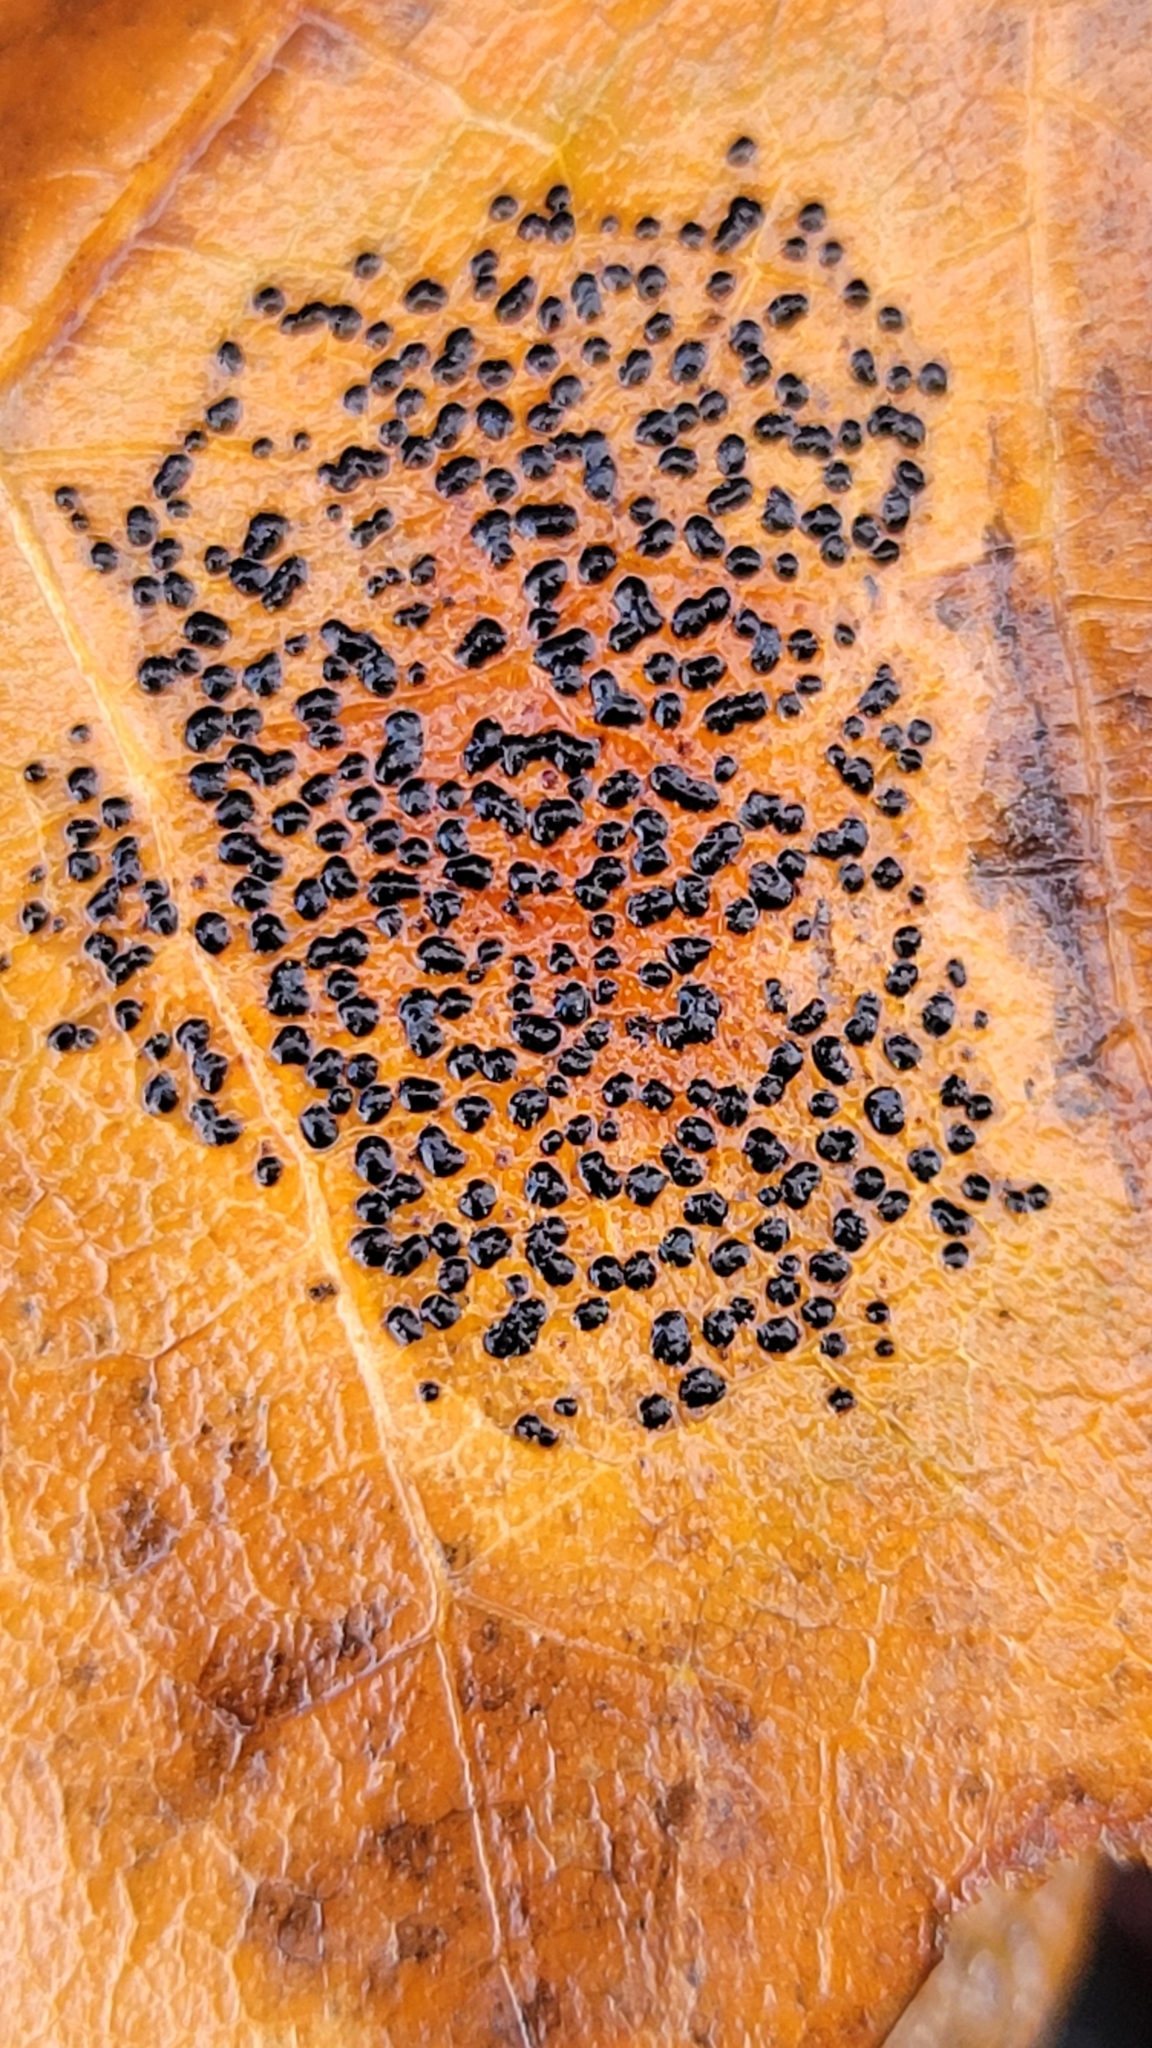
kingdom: Fungi
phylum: Ascomycota
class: Leotiomycetes
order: Rhytismatales
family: Rhytismataceae
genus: Rhytisma
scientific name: Rhytisma punctatum
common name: Speckled tar spot
